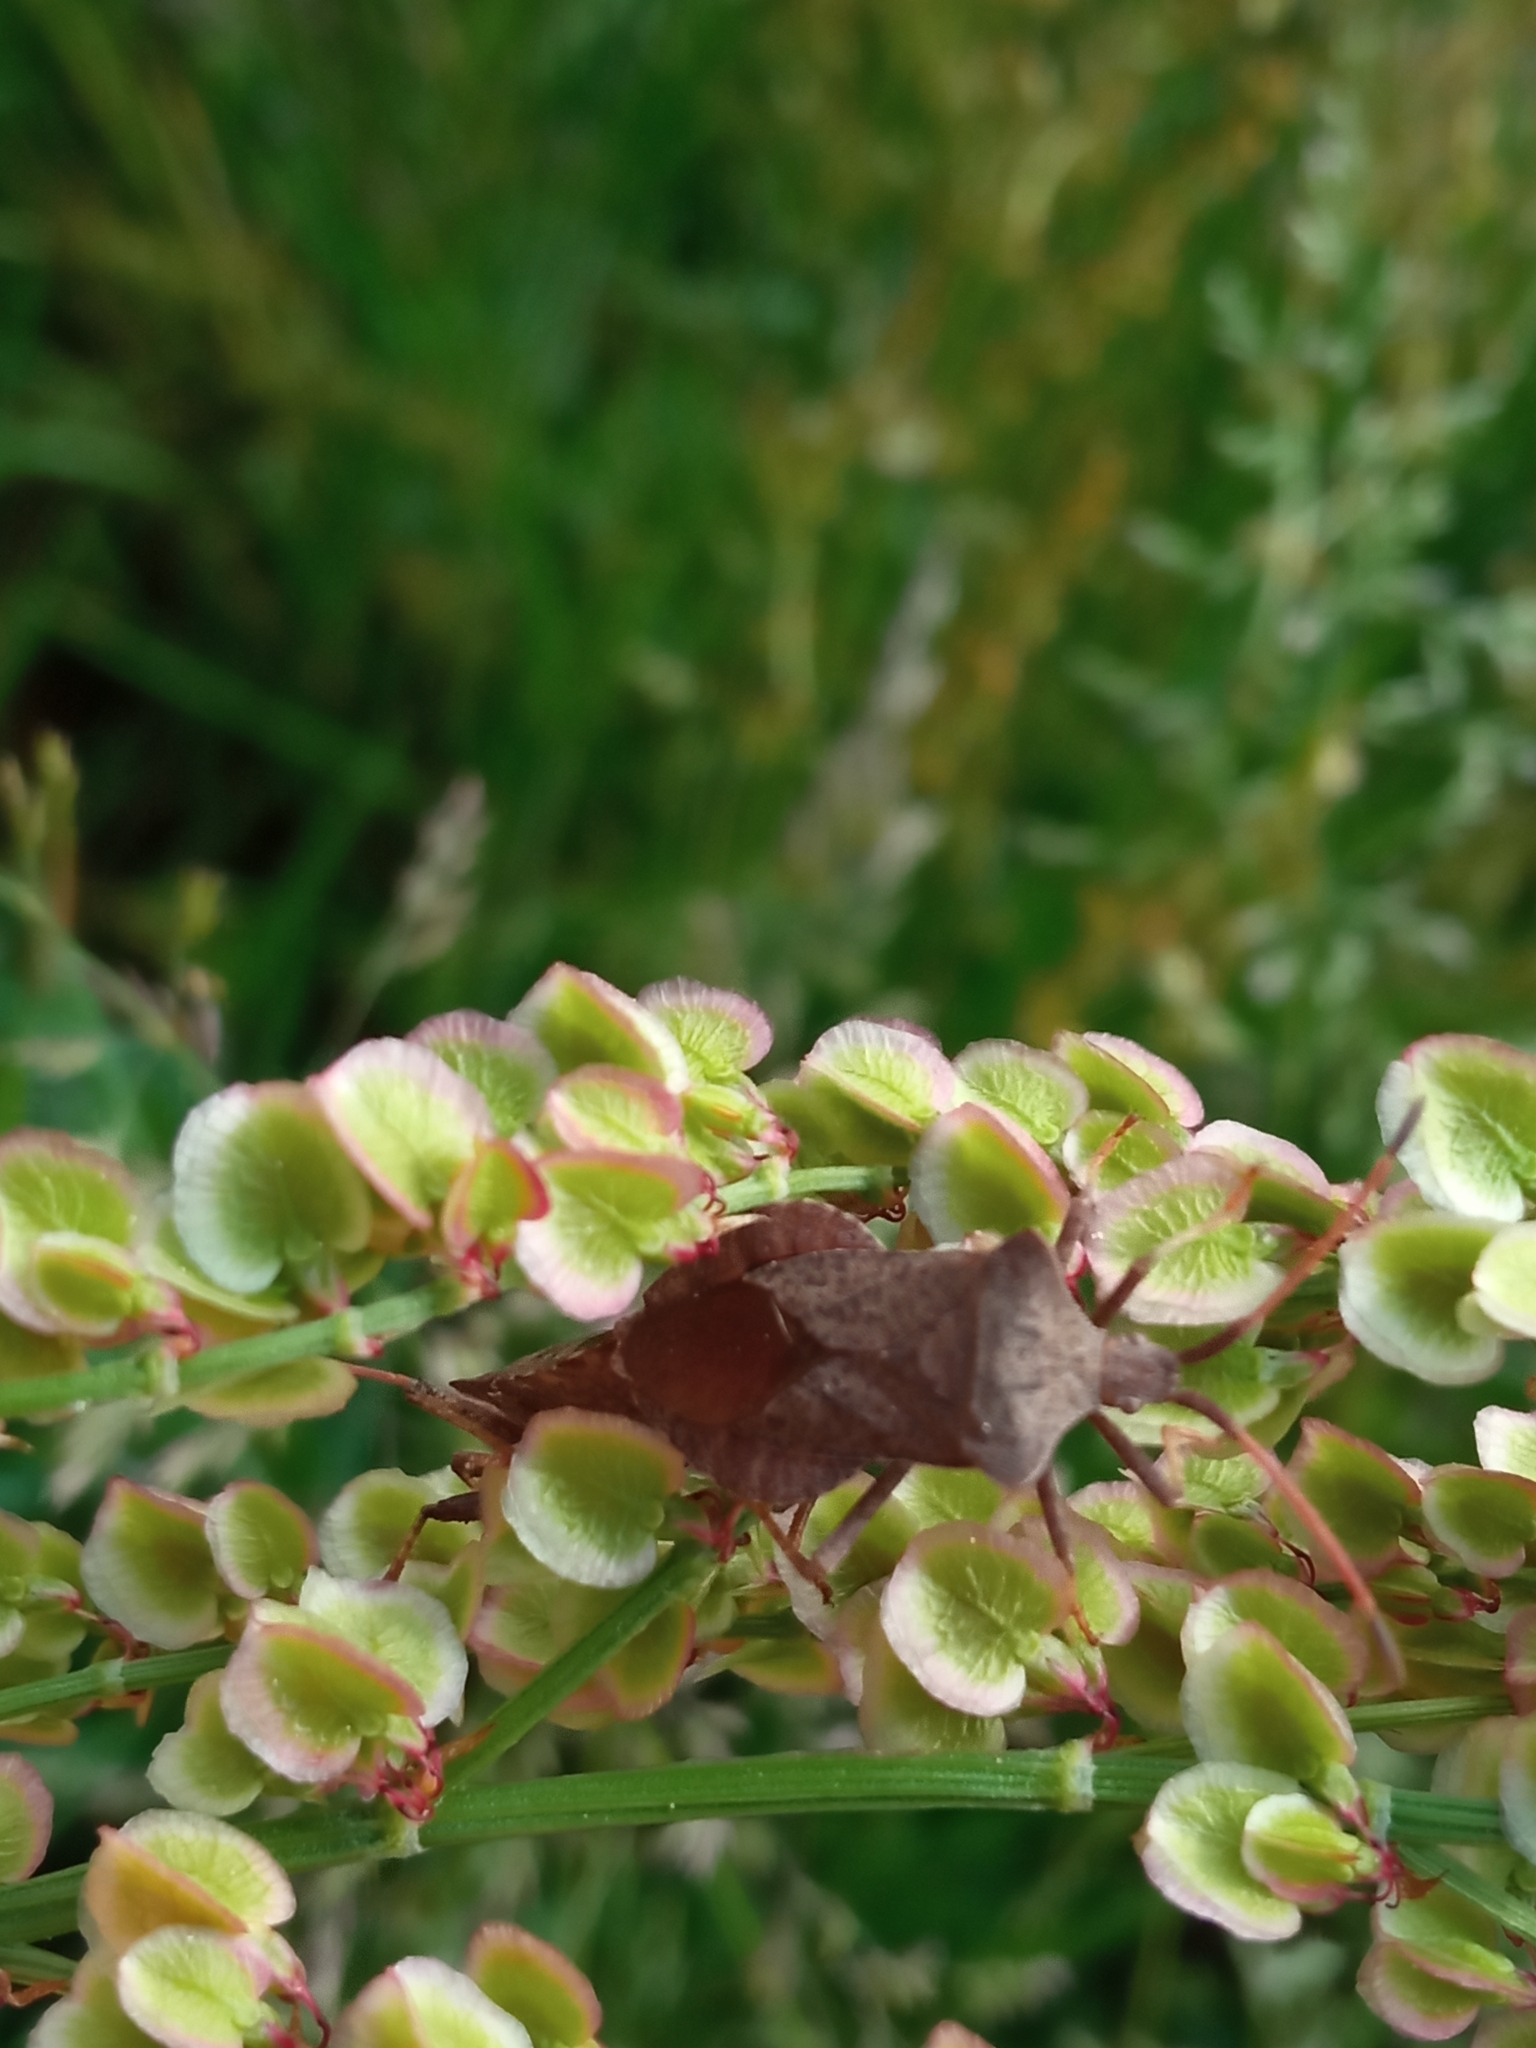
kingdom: Animalia
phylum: Arthropoda
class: Insecta
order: Hemiptera
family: Coreidae
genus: Coreus
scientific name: Coreus marginatus
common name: Dock bug
